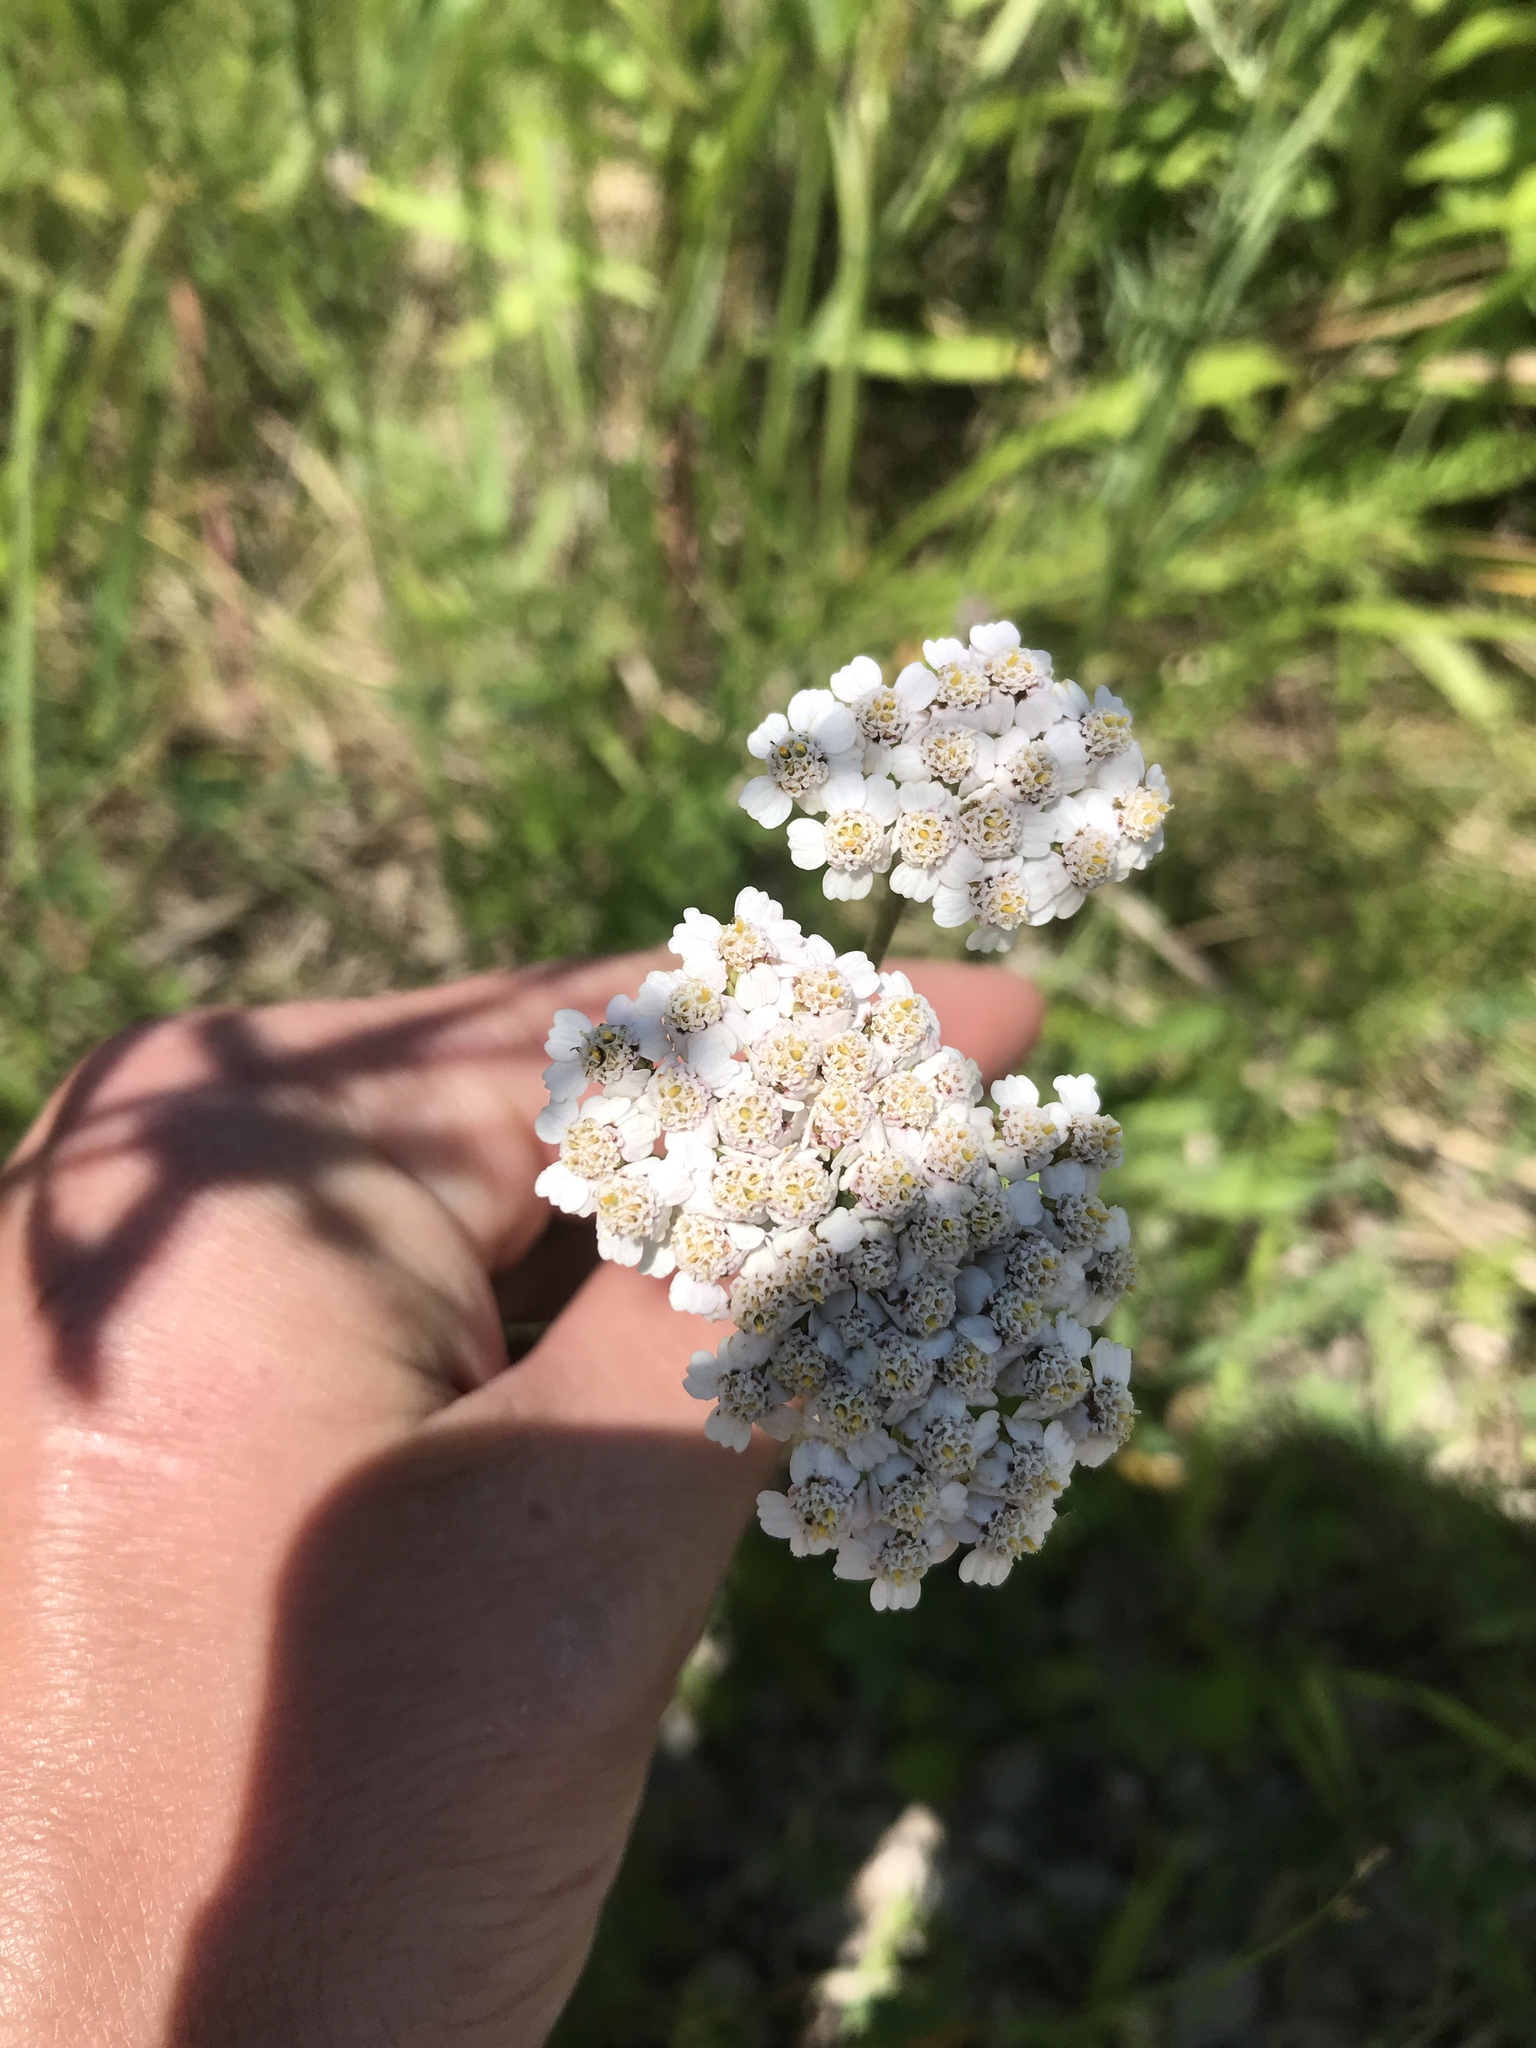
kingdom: Plantae
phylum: Tracheophyta
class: Magnoliopsida
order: Asterales
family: Asteraceae
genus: Achillea
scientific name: Achillea millefolium
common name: Yarrow
